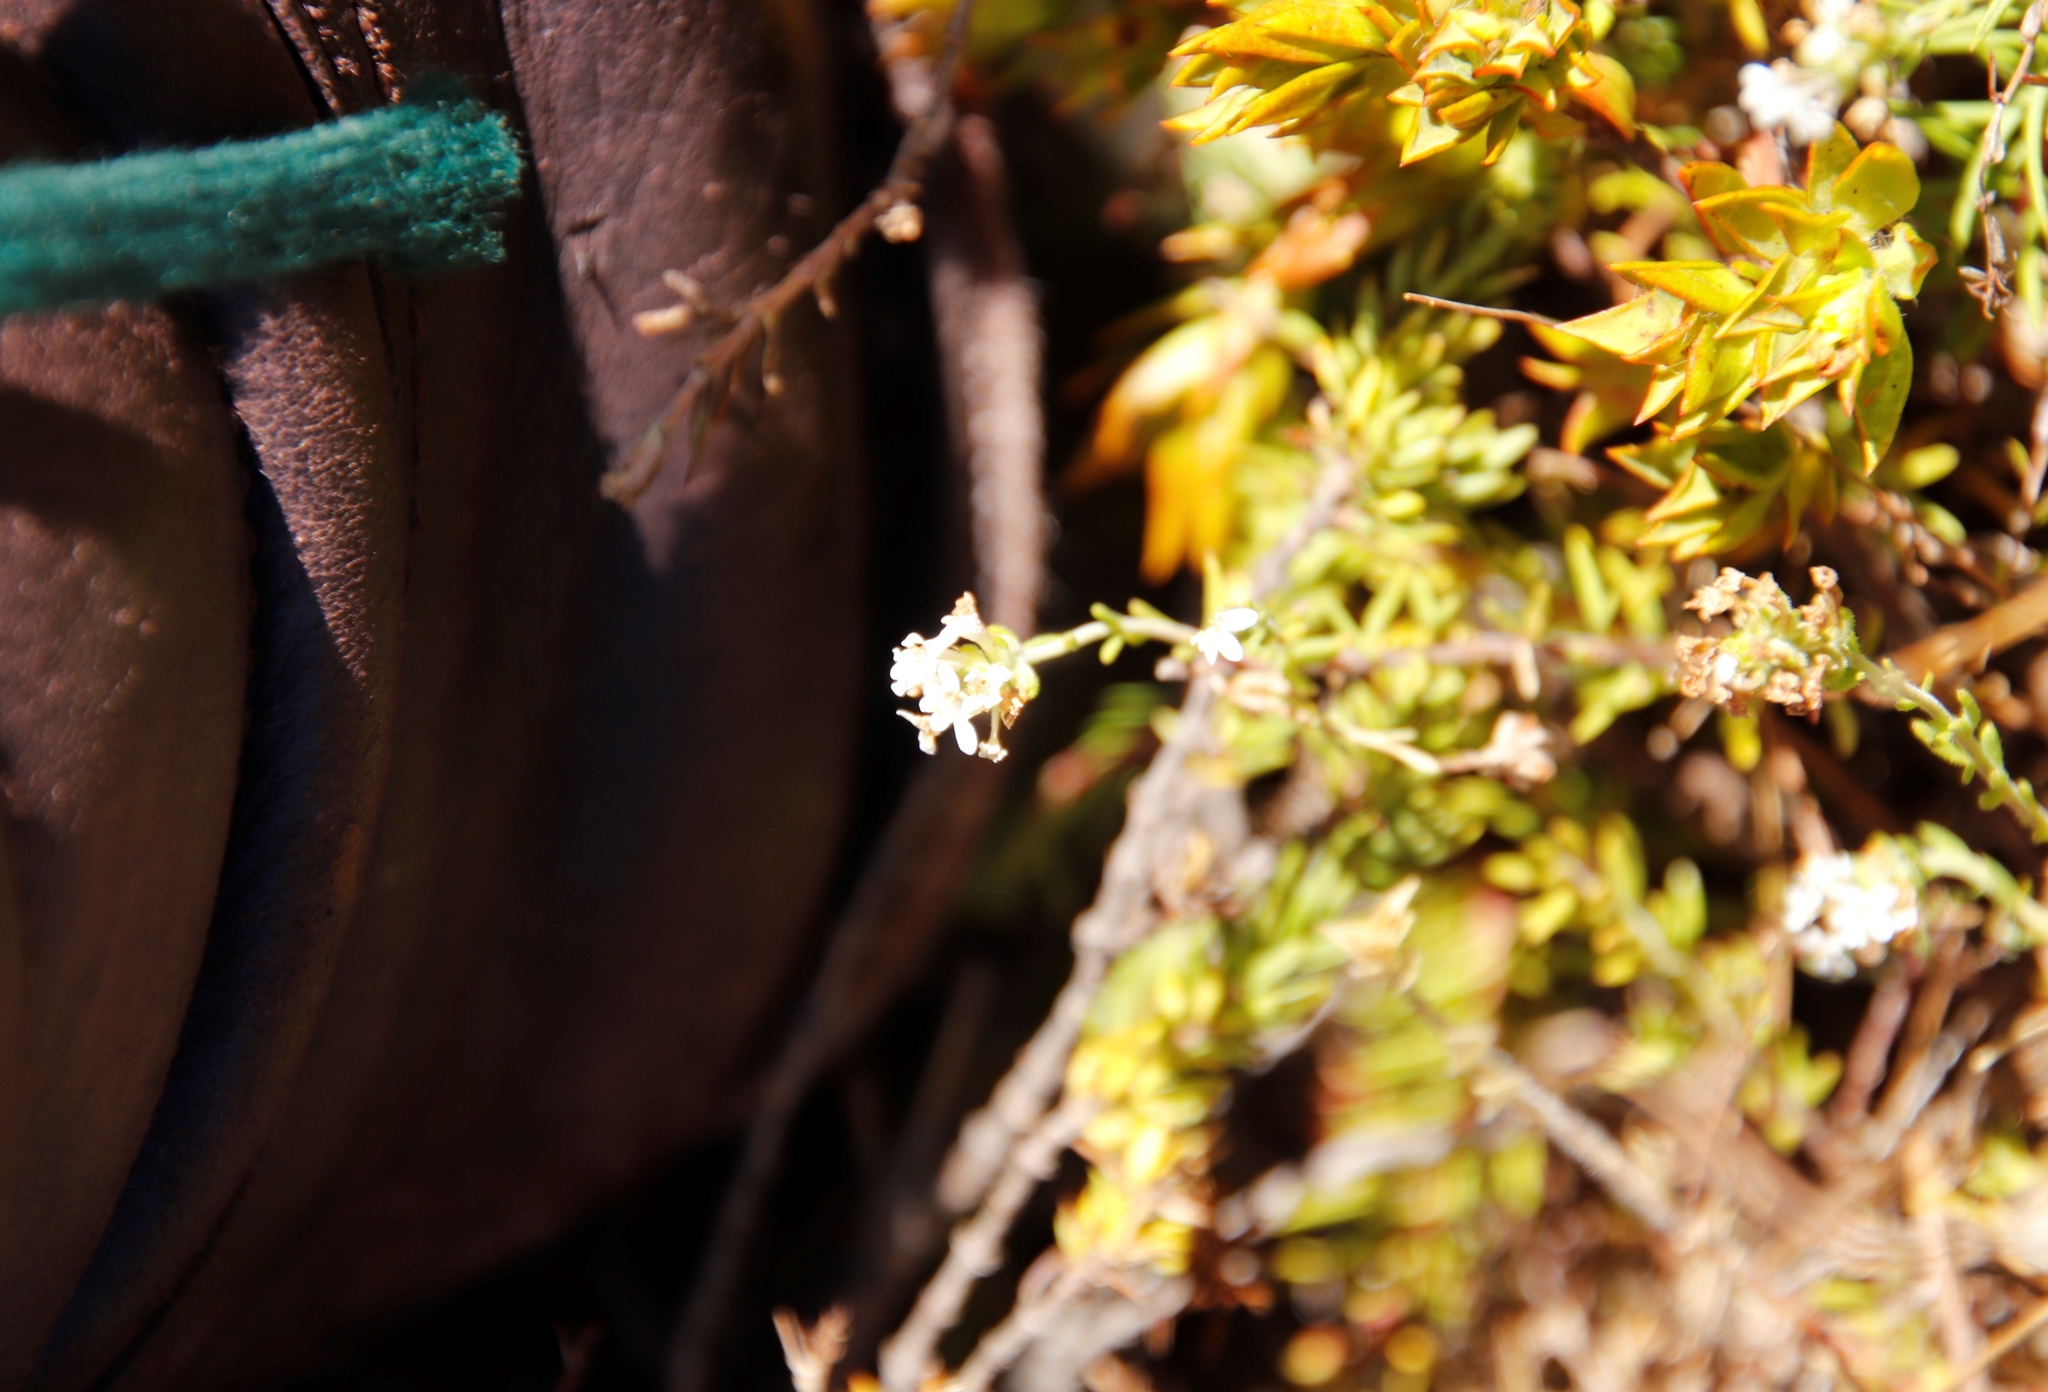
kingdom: Plantae
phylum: Tracheophyta
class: Magnoliopsida
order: Lamiales
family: Scrophulariaceae
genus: Selago
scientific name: Selago levynsiae
